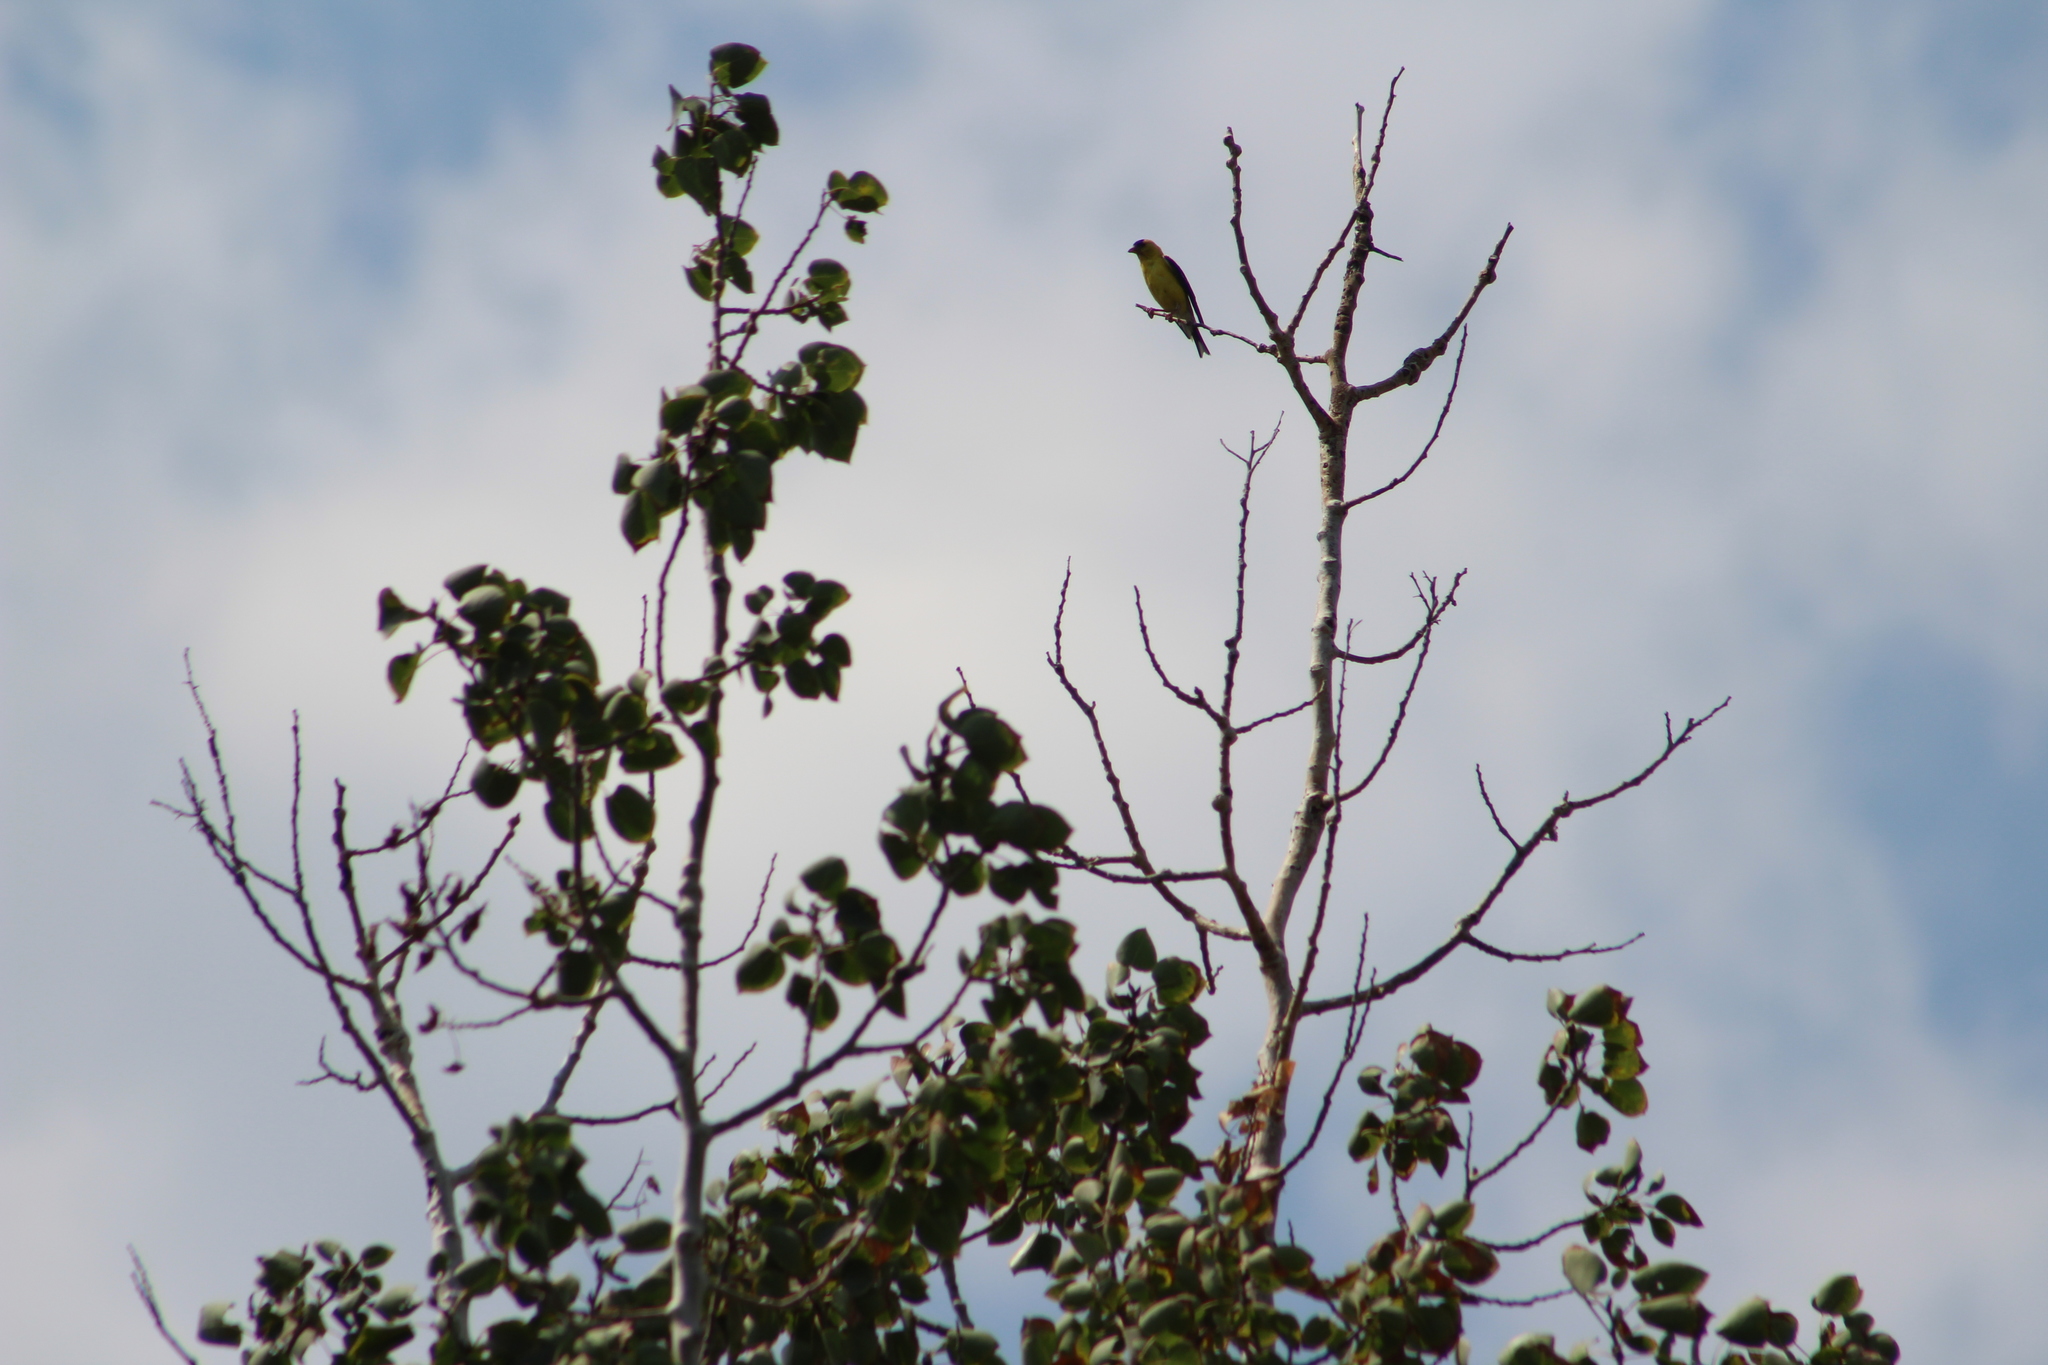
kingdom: Animalia
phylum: Chordata
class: Aves
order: Passeriformes
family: Fringillidae
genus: Spinus
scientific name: Spinus tristis
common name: American goldfinch
